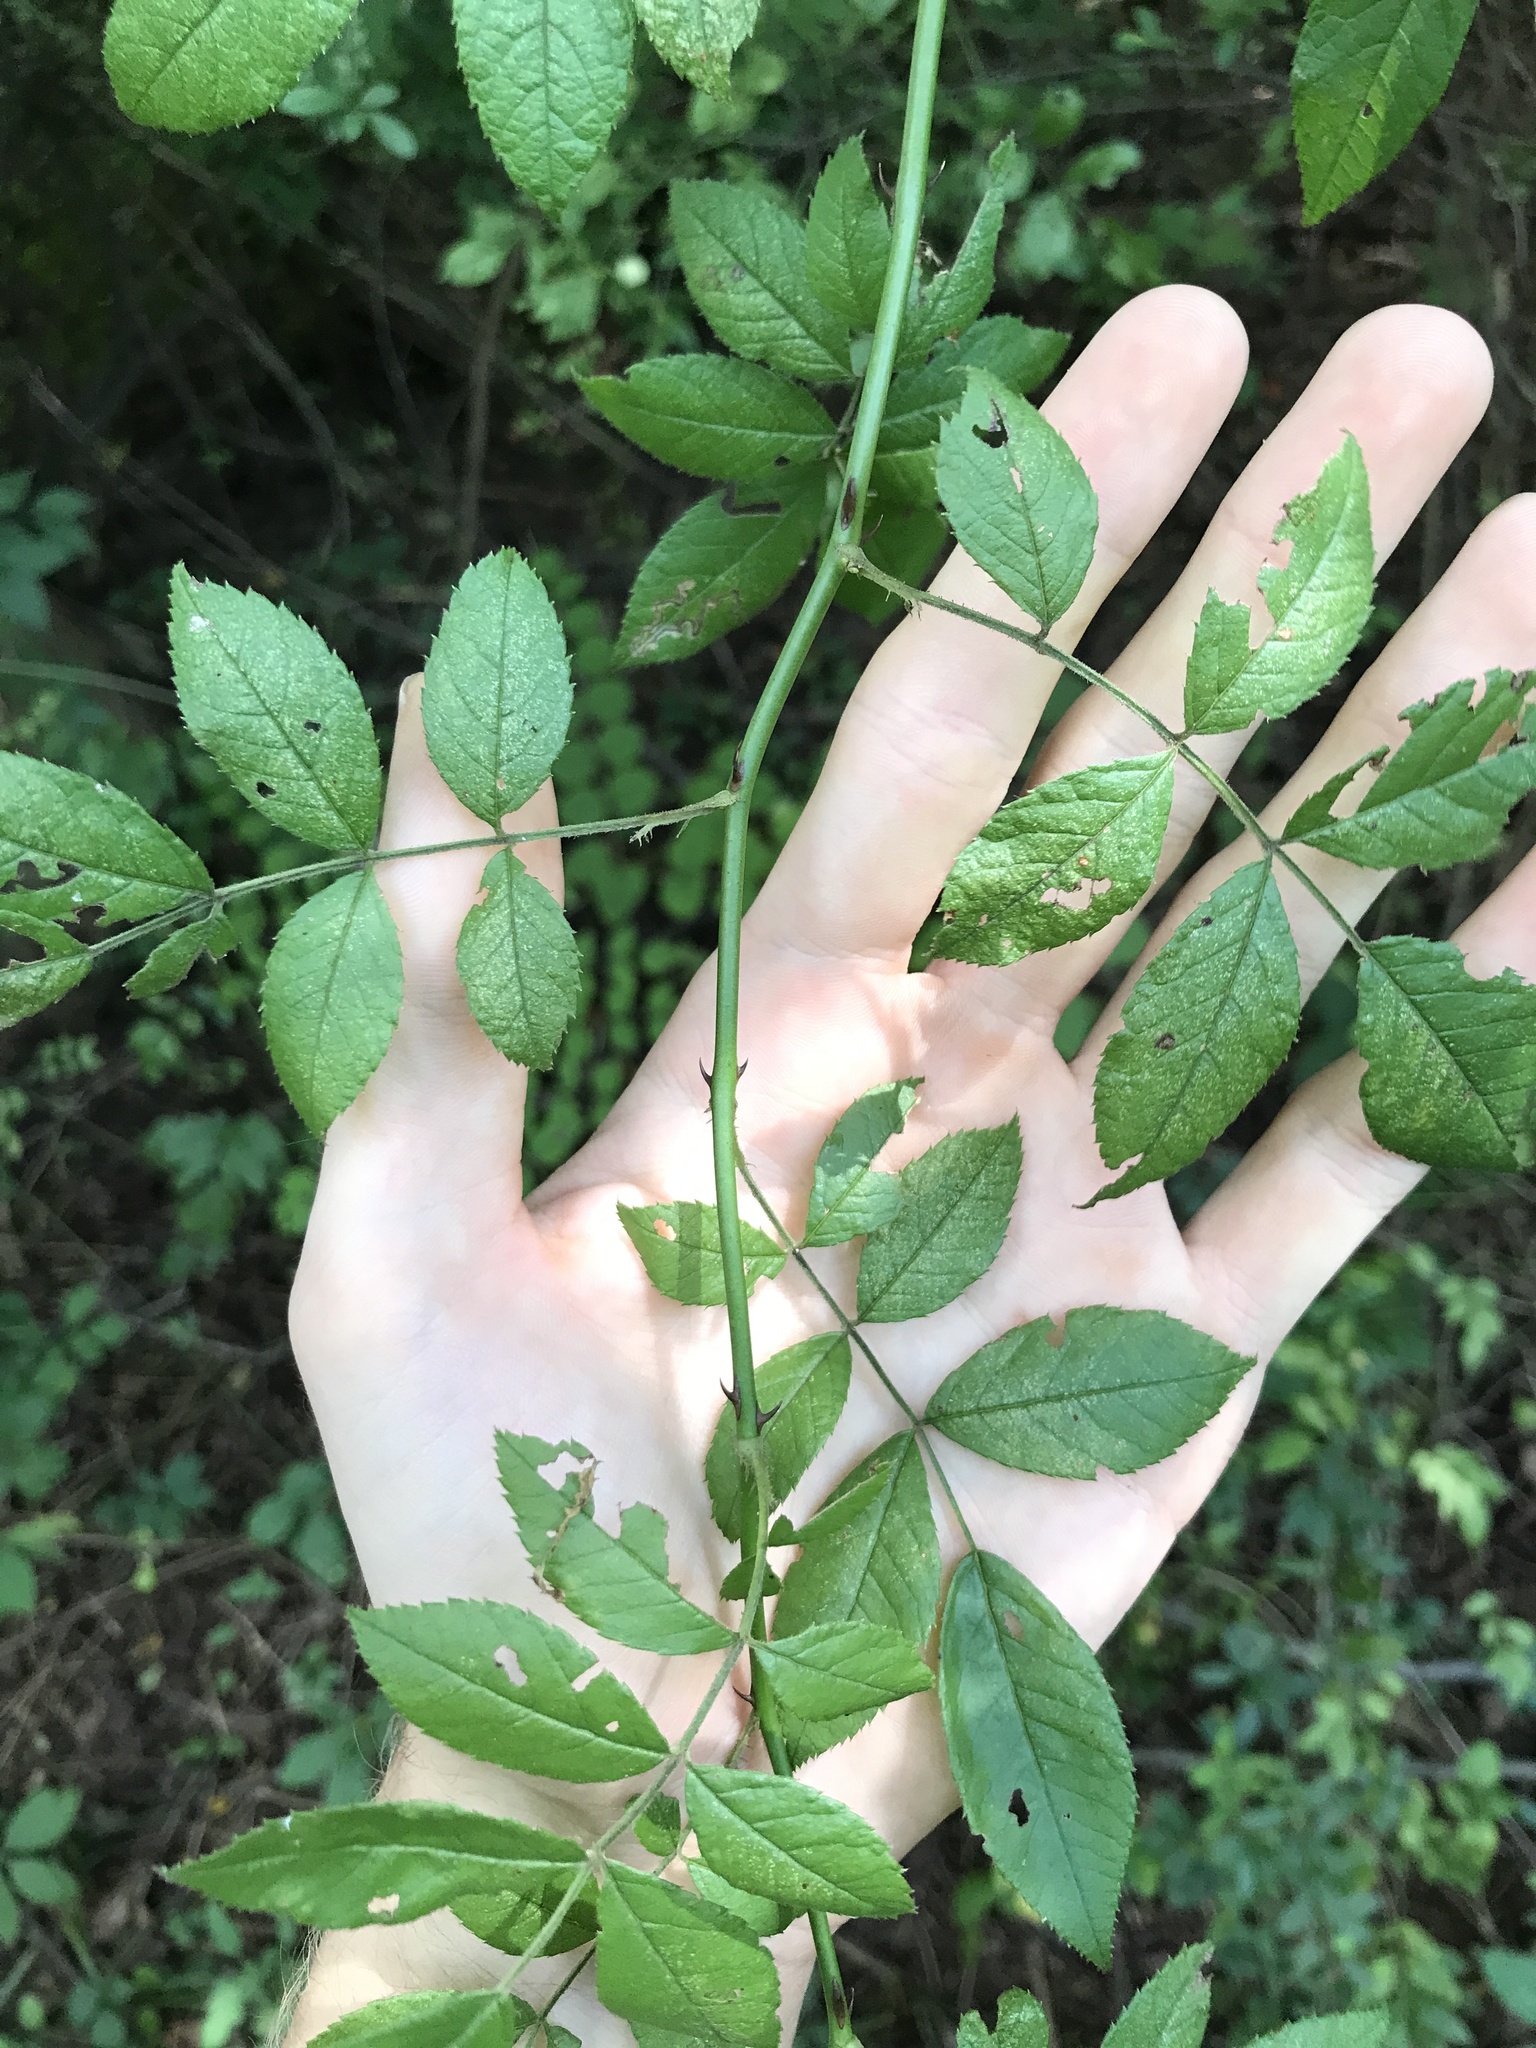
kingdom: Plantae
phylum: Tracheophyta
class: Magnoliopsida
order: Rosales
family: Rosaceae
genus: Rosa
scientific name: Rosa multiflora
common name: Multiflora rose
